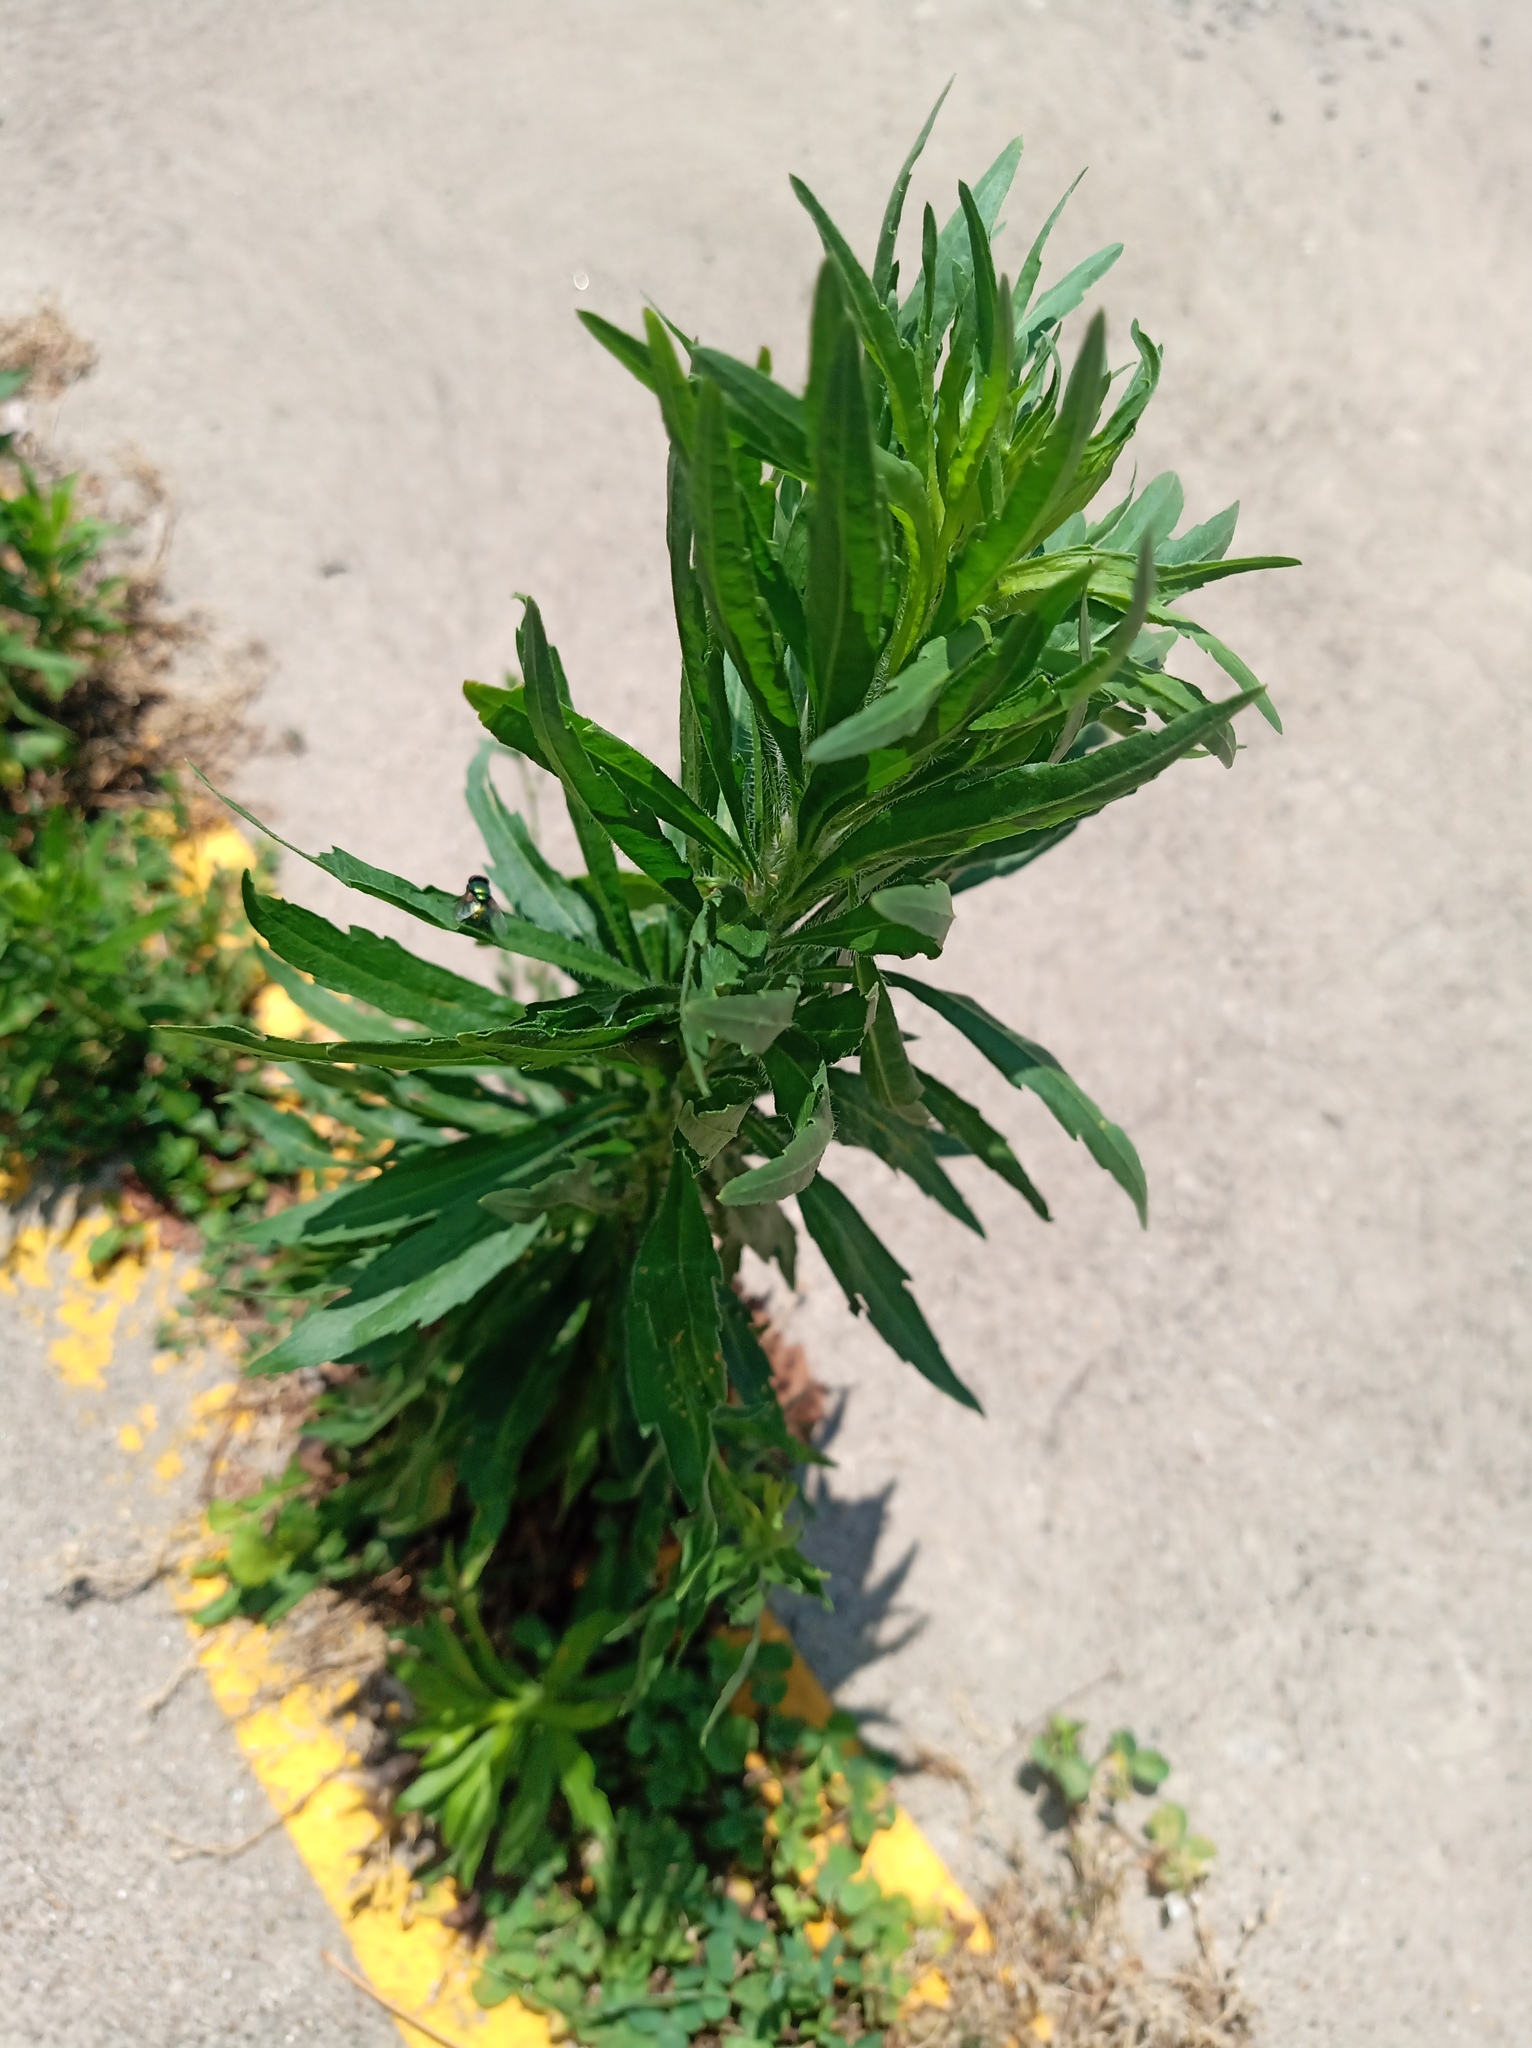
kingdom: Plantae
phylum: Tracheophyta
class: Magnoliopsida
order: Asterales
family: Asteraceae
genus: Erigeron
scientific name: Erigeron canadensis
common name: Canadian fleabane
